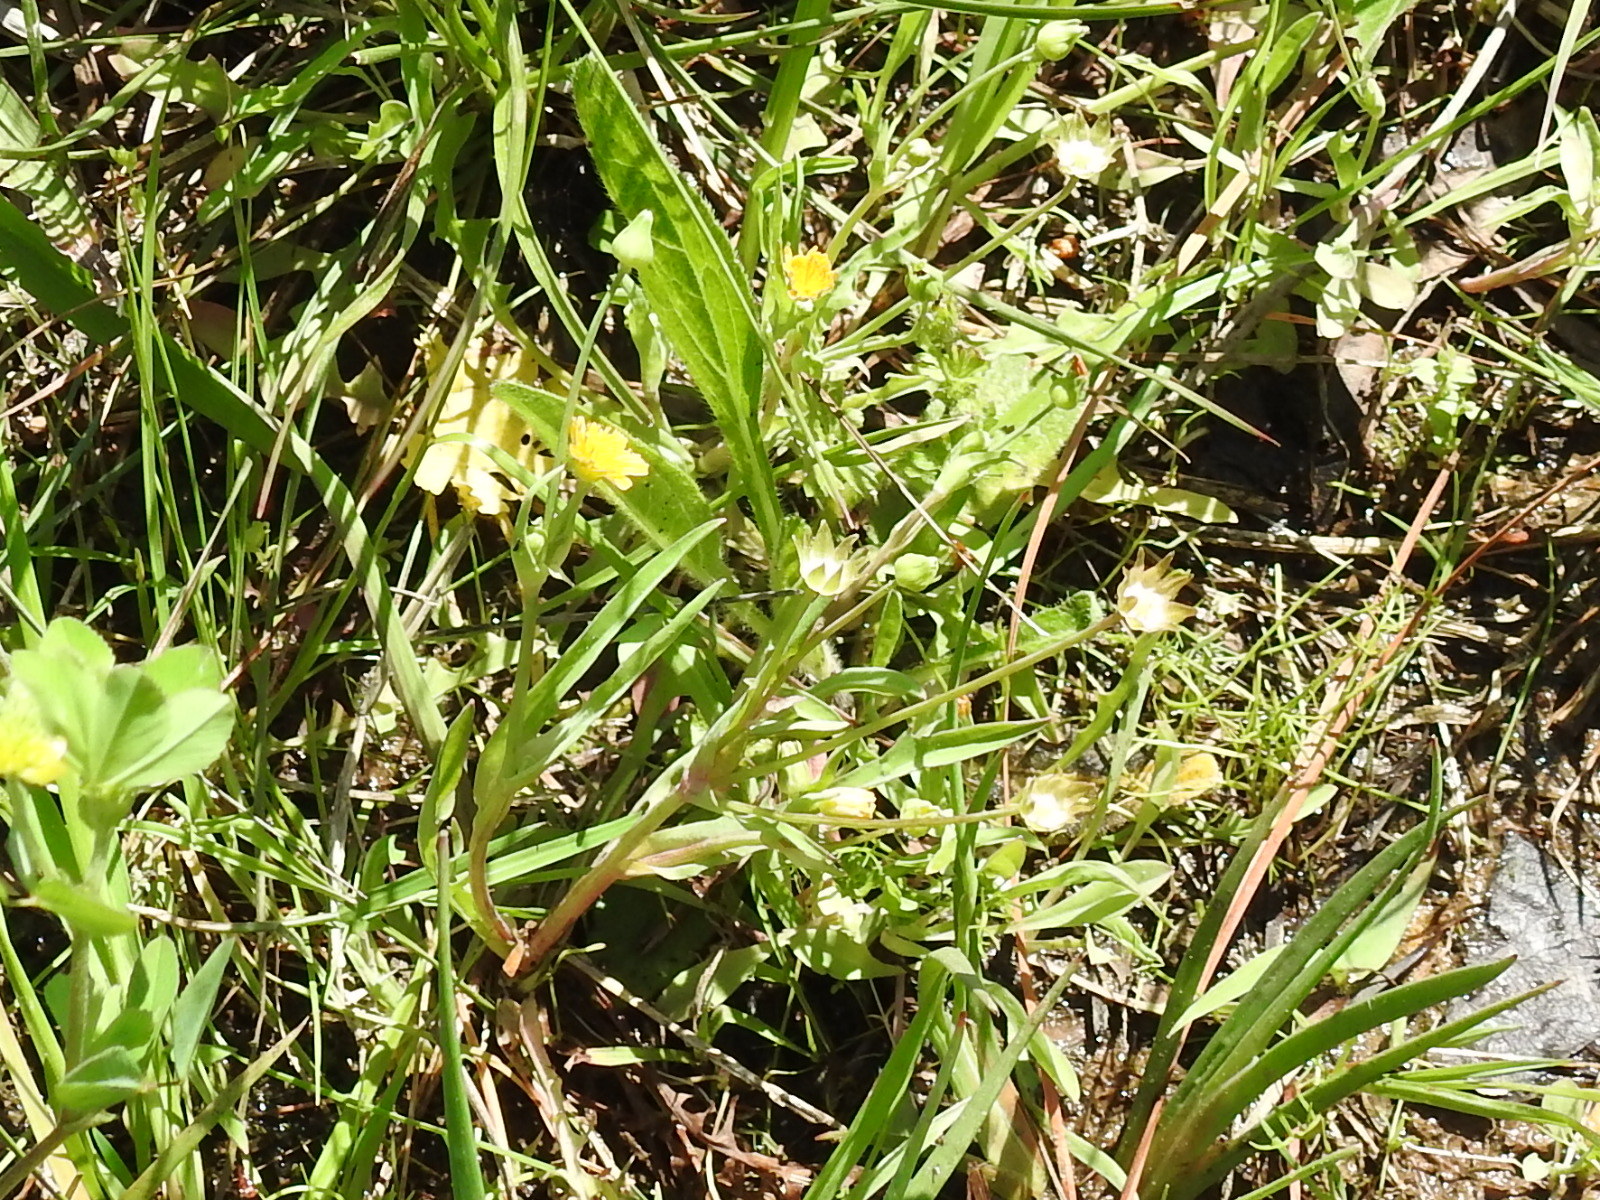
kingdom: Plantae
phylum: Tracheophyta
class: Magnoliopsida
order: Asterales
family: Asteraceae
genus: Krigia
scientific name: Krigia cespitosa
